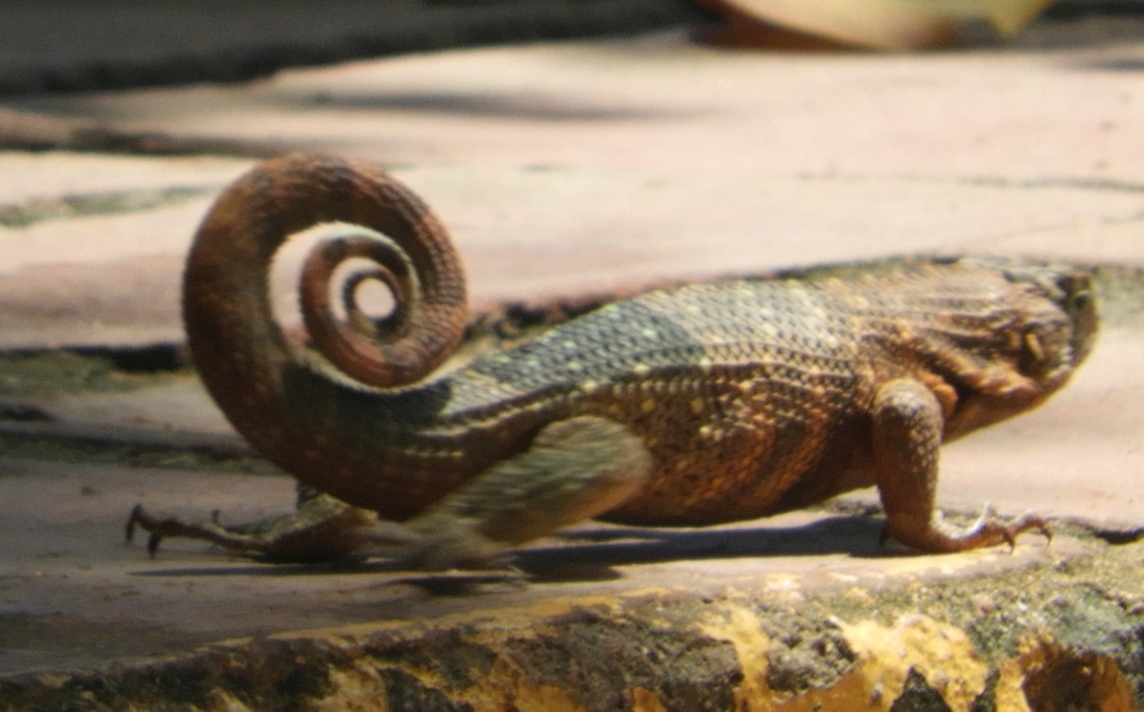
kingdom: Animalia
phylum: Chordata
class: Squamata
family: Leiocephalidae
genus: Leiocephalus
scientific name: Leiocephalus carinatus
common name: Northern curly-tailed lizard
